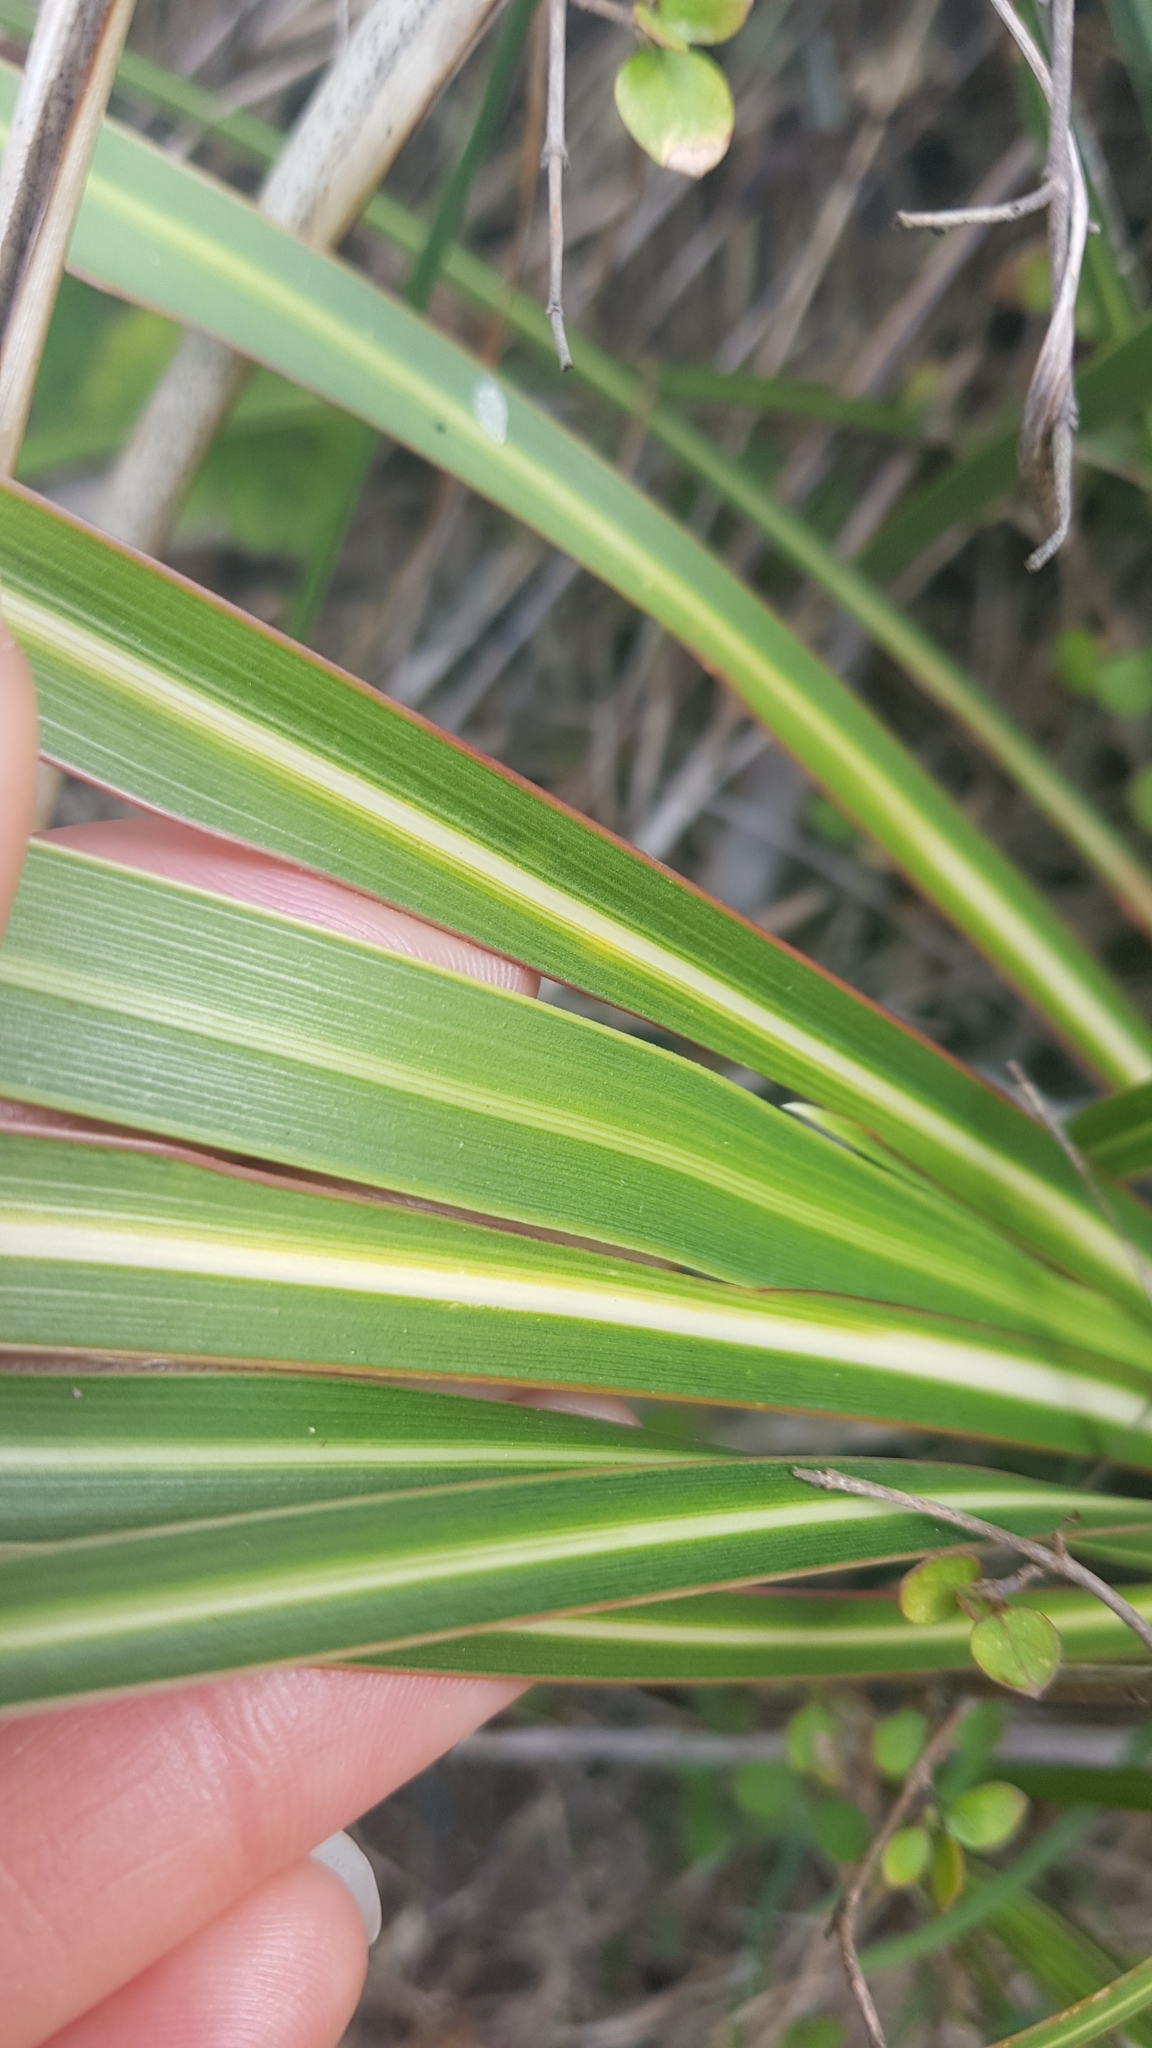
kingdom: Plantae
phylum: Tracheophyta
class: Liliopsida
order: Asparagales
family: Iridaceae
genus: Libertia
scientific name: Libertia ixioides
